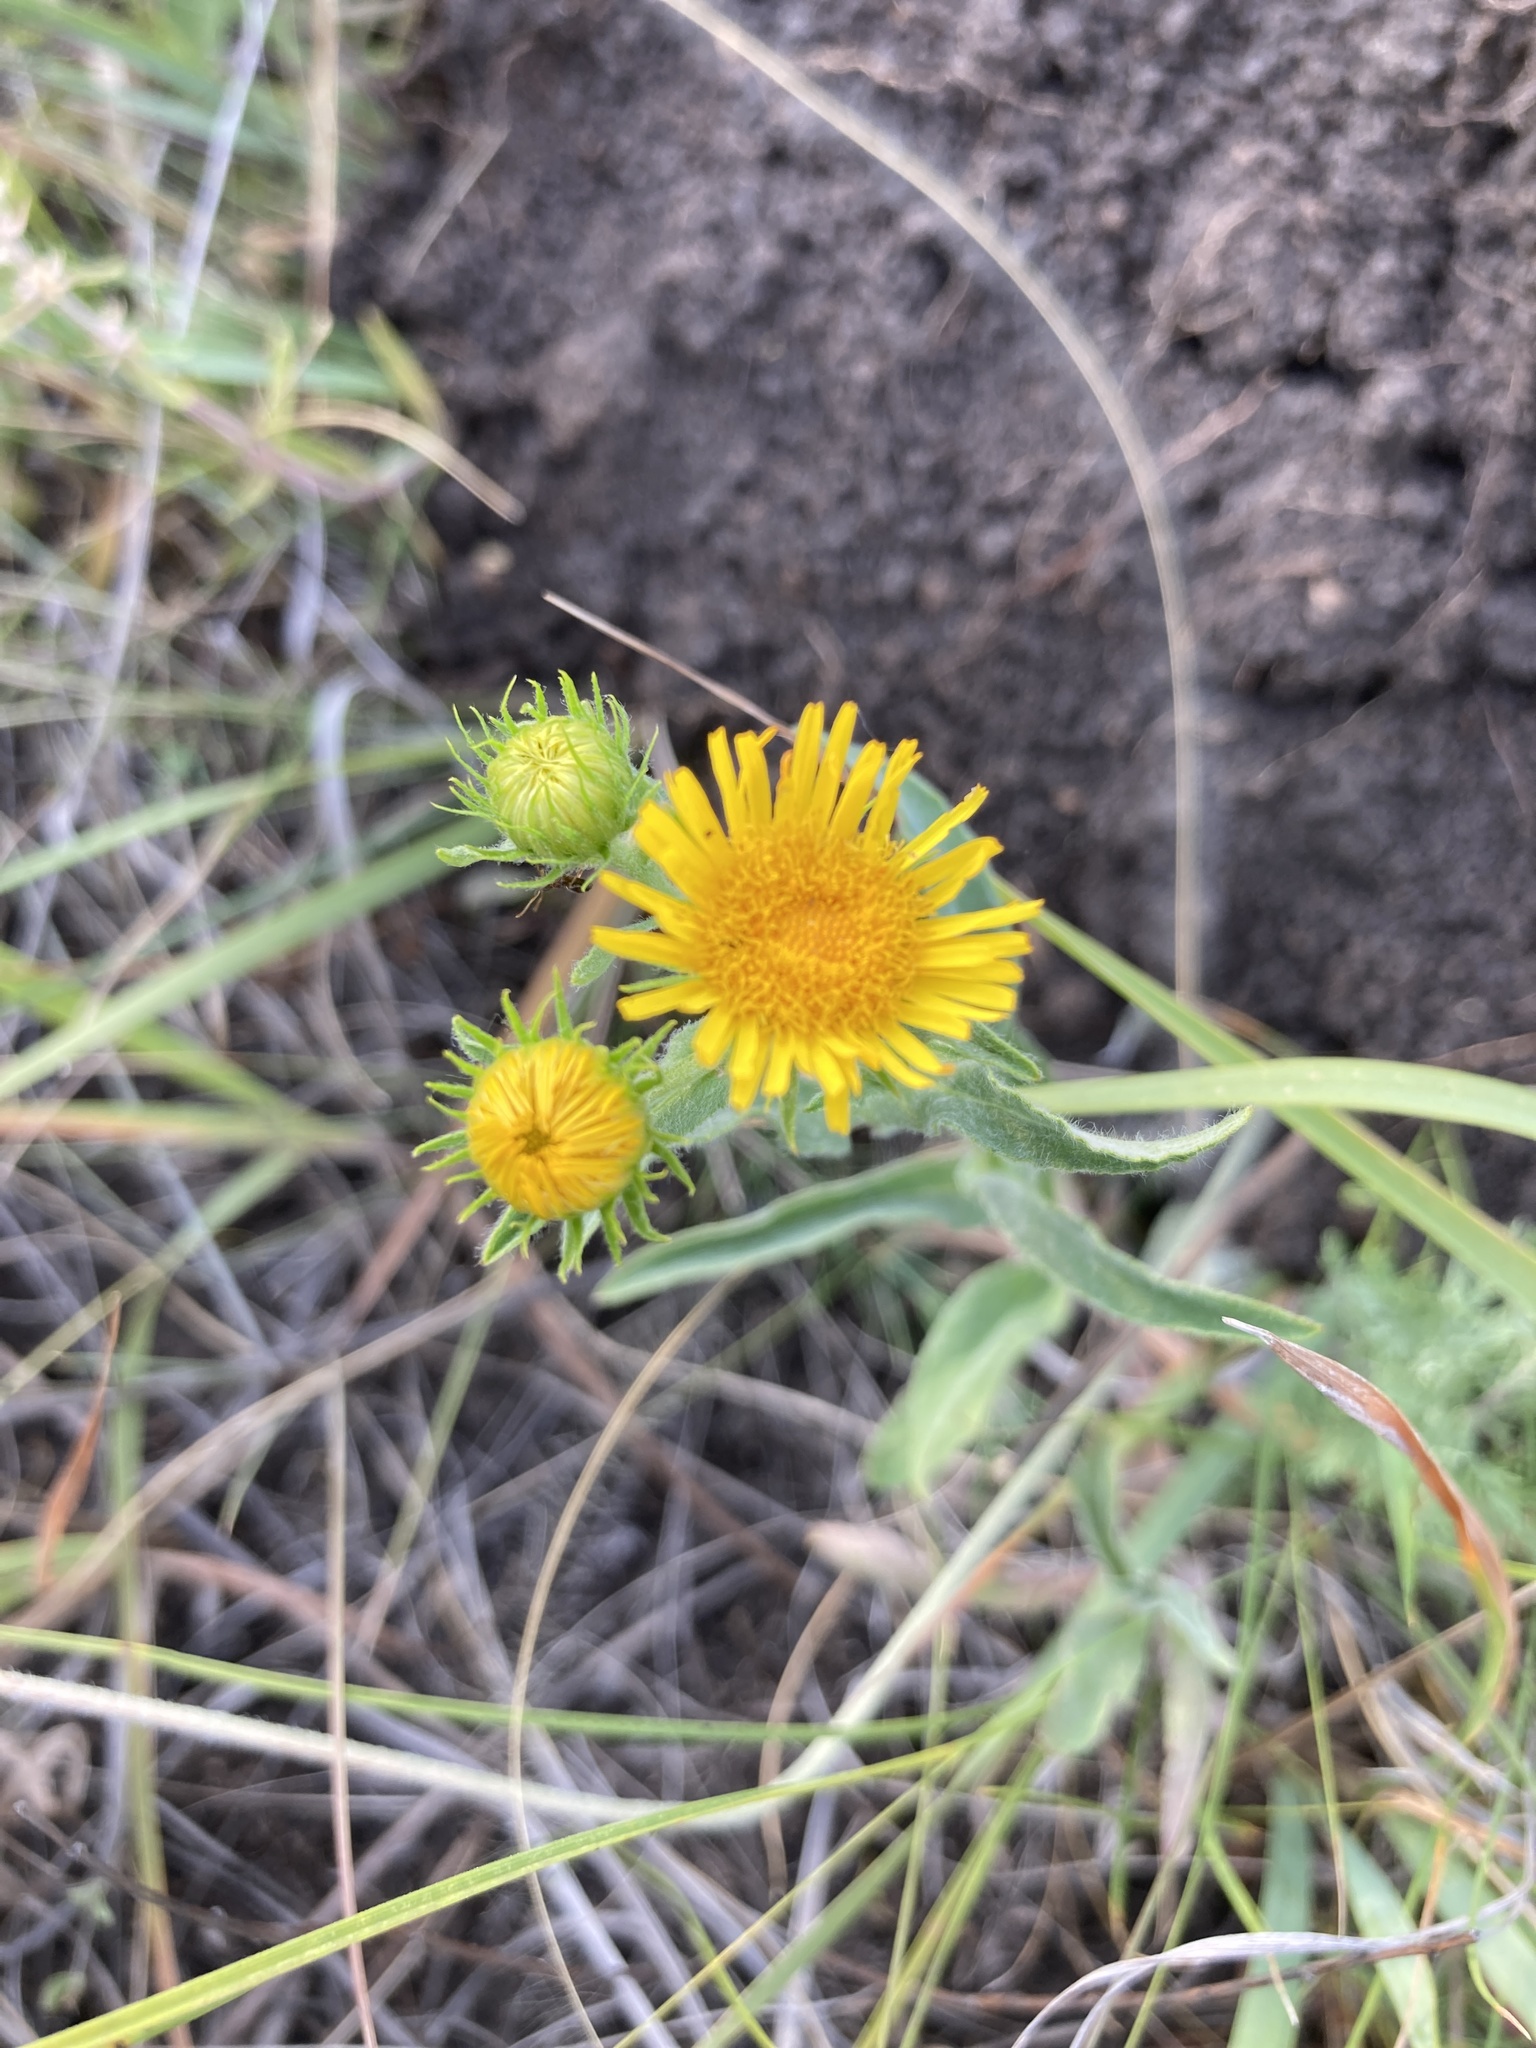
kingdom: Plantae
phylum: Tracheophyta
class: Magnoliopsida
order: Asterales
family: Asteraceae
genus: Pentanema
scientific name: Pentanema britannicum
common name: British elecampane
